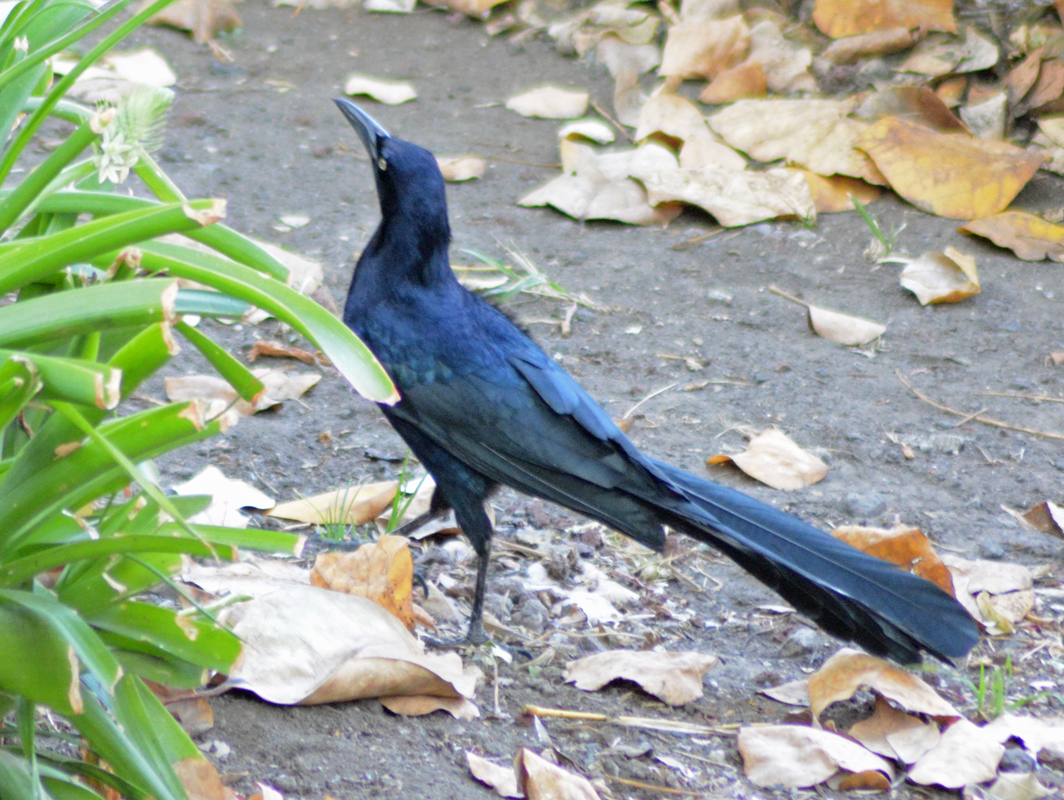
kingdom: Animalia
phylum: Chordata
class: Aves
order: Passeriformes
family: Icteridae
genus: Quiscalus
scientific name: Quiscalus mexicanus
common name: Great-tailed grackle
